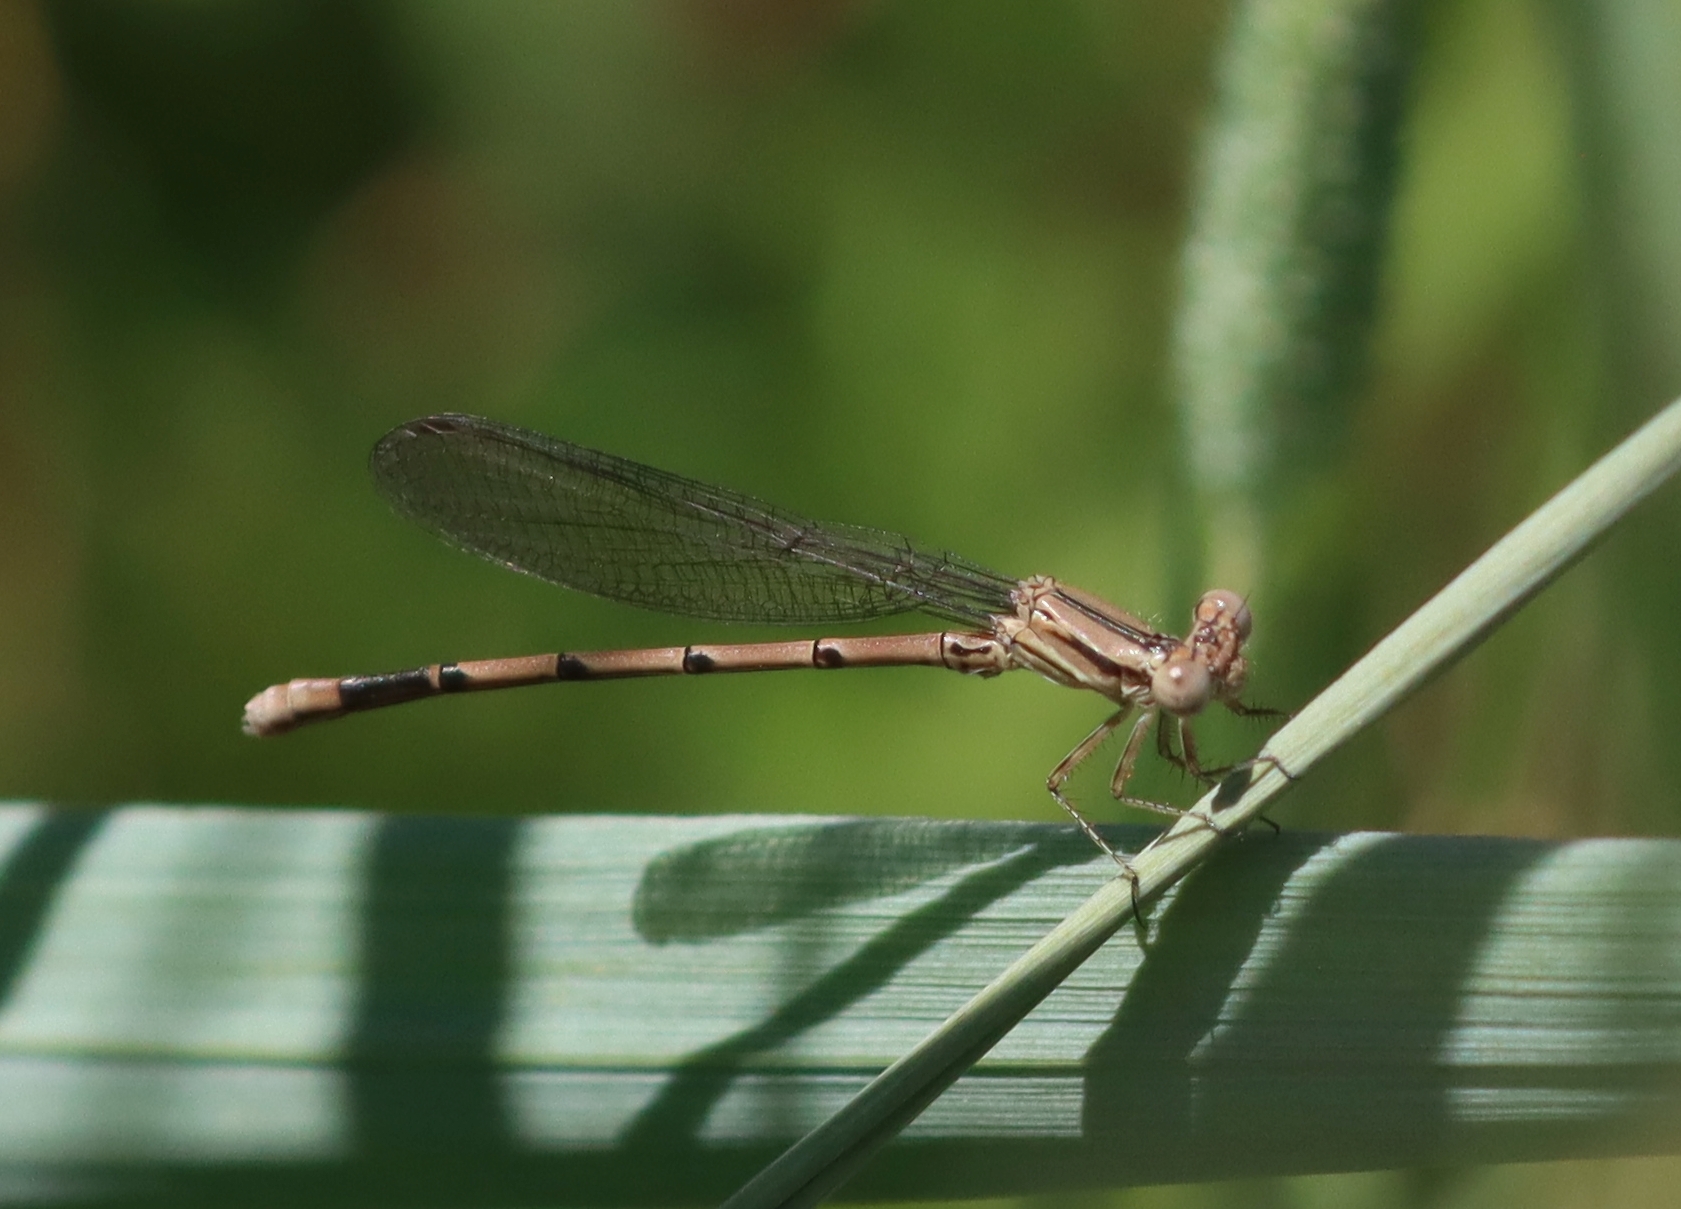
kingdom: Animalia
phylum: Arthropoda
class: Insecta
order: Odonata
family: Coenagrionidae
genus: Argia
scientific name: Argia fumipennis
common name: Variable dancer
